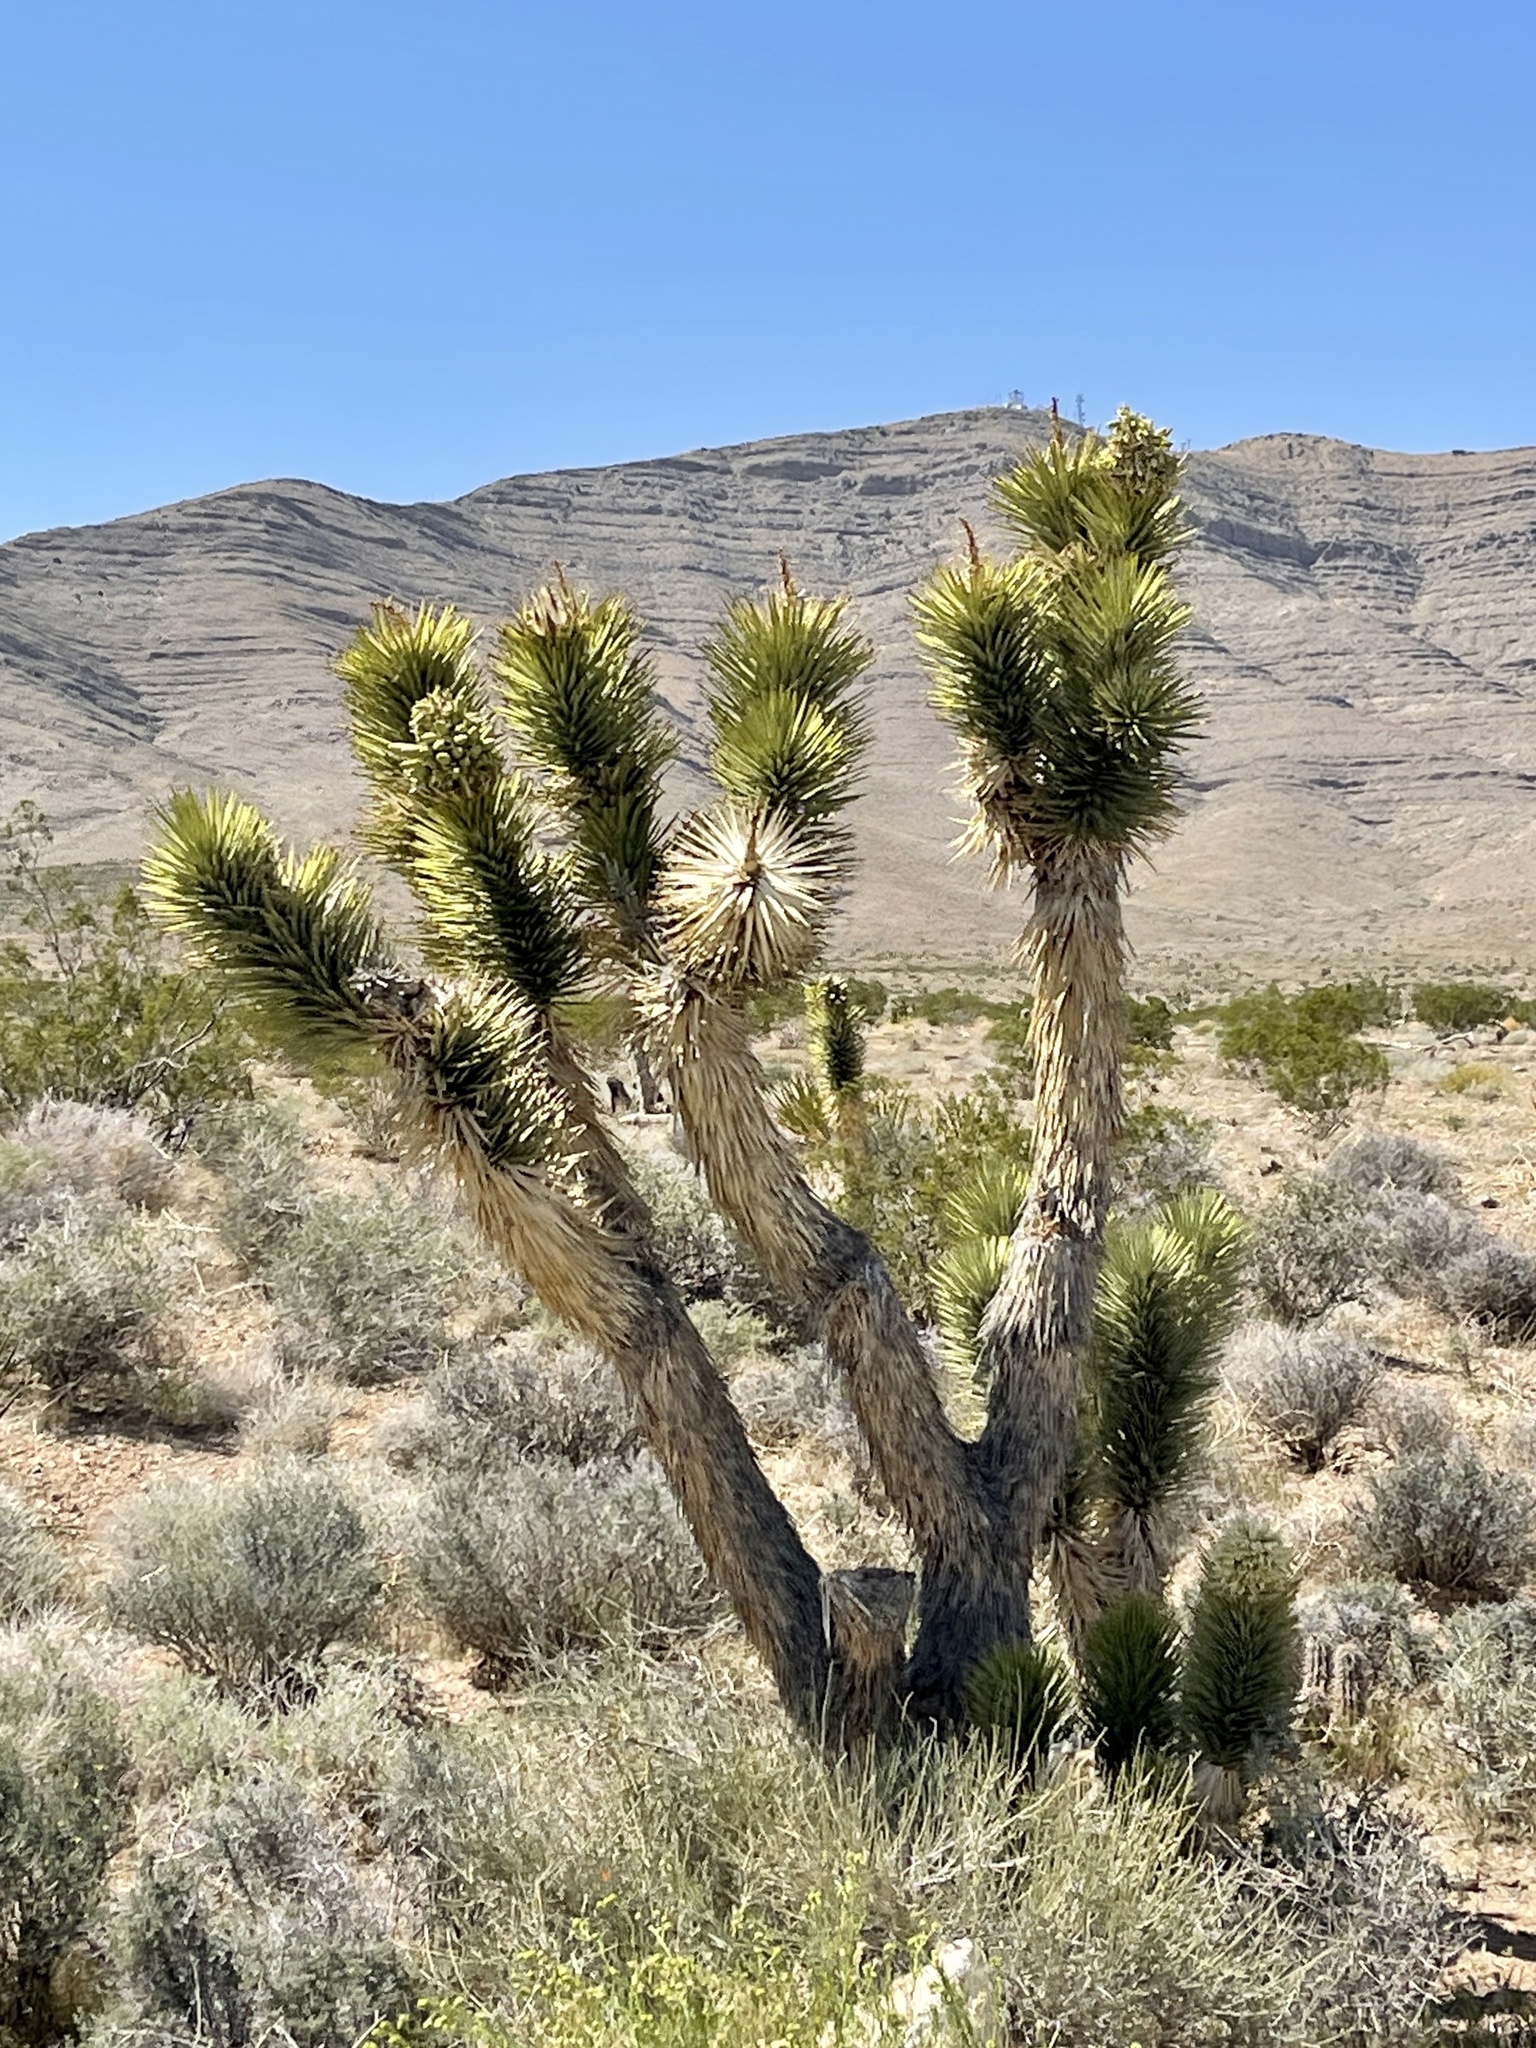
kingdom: Plantae
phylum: Tracheophyta
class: Liliopsida
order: Asparagales
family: Asparagaceae
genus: Yucca
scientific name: Yucca brevifolia
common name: Joshua tree
